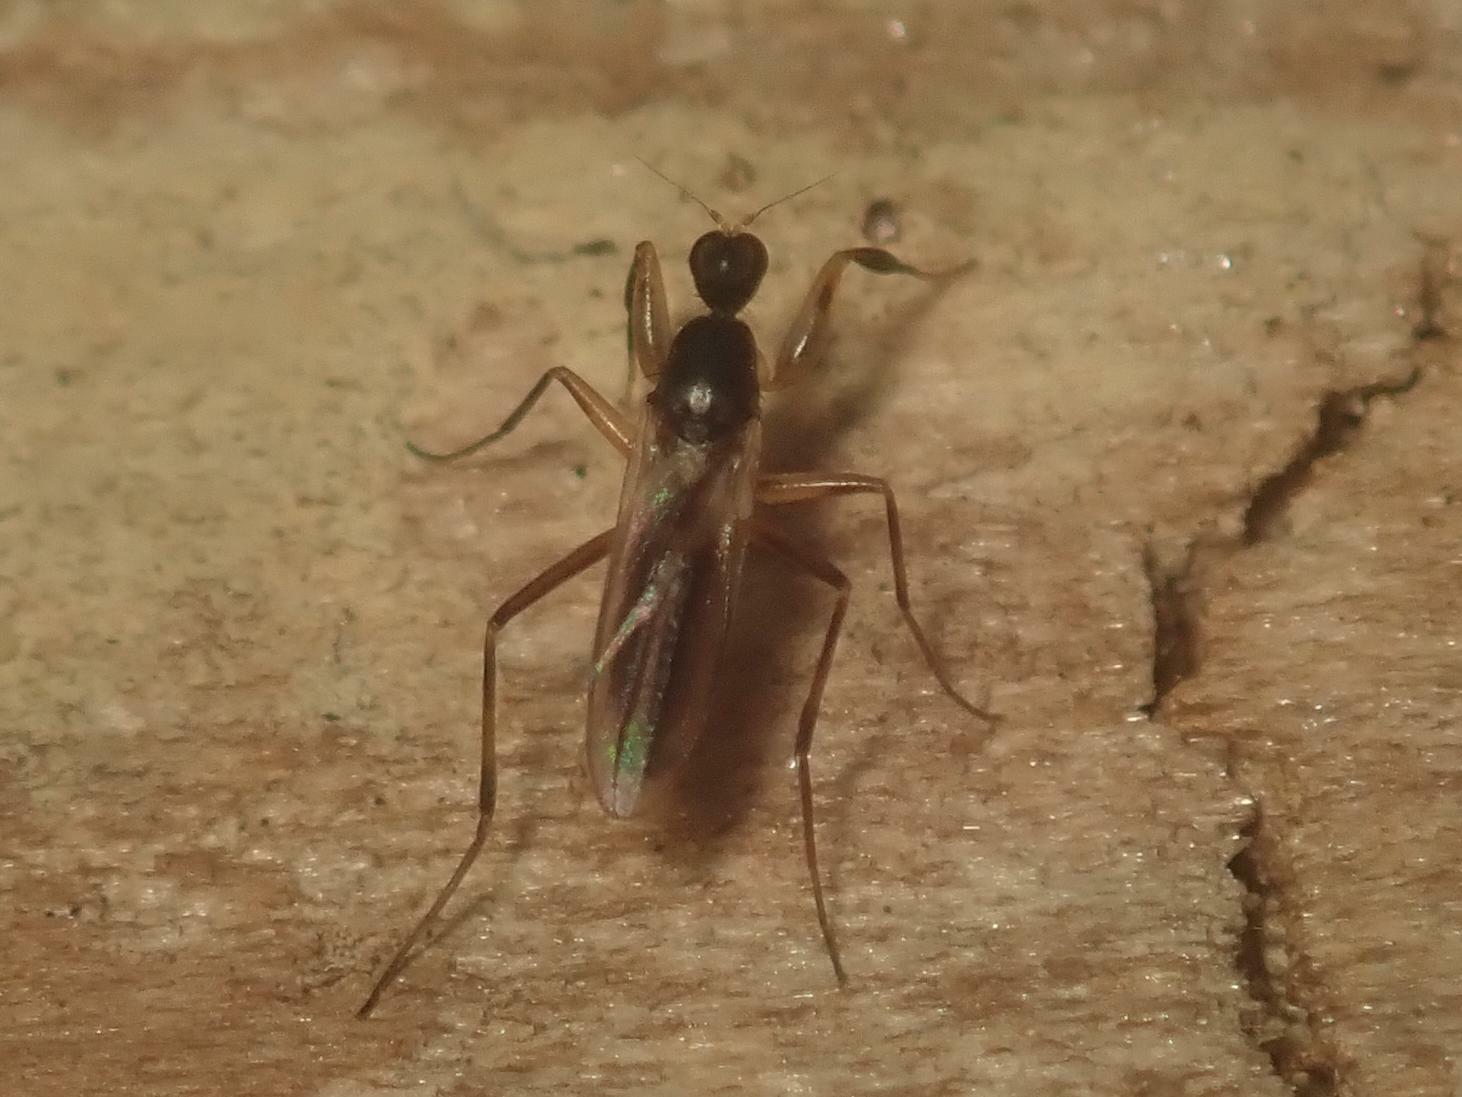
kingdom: Animalia
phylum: Arthropoda
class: Insecta
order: Diptera
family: Hybotidae
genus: Tachypeza
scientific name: Tachypeza nubila
